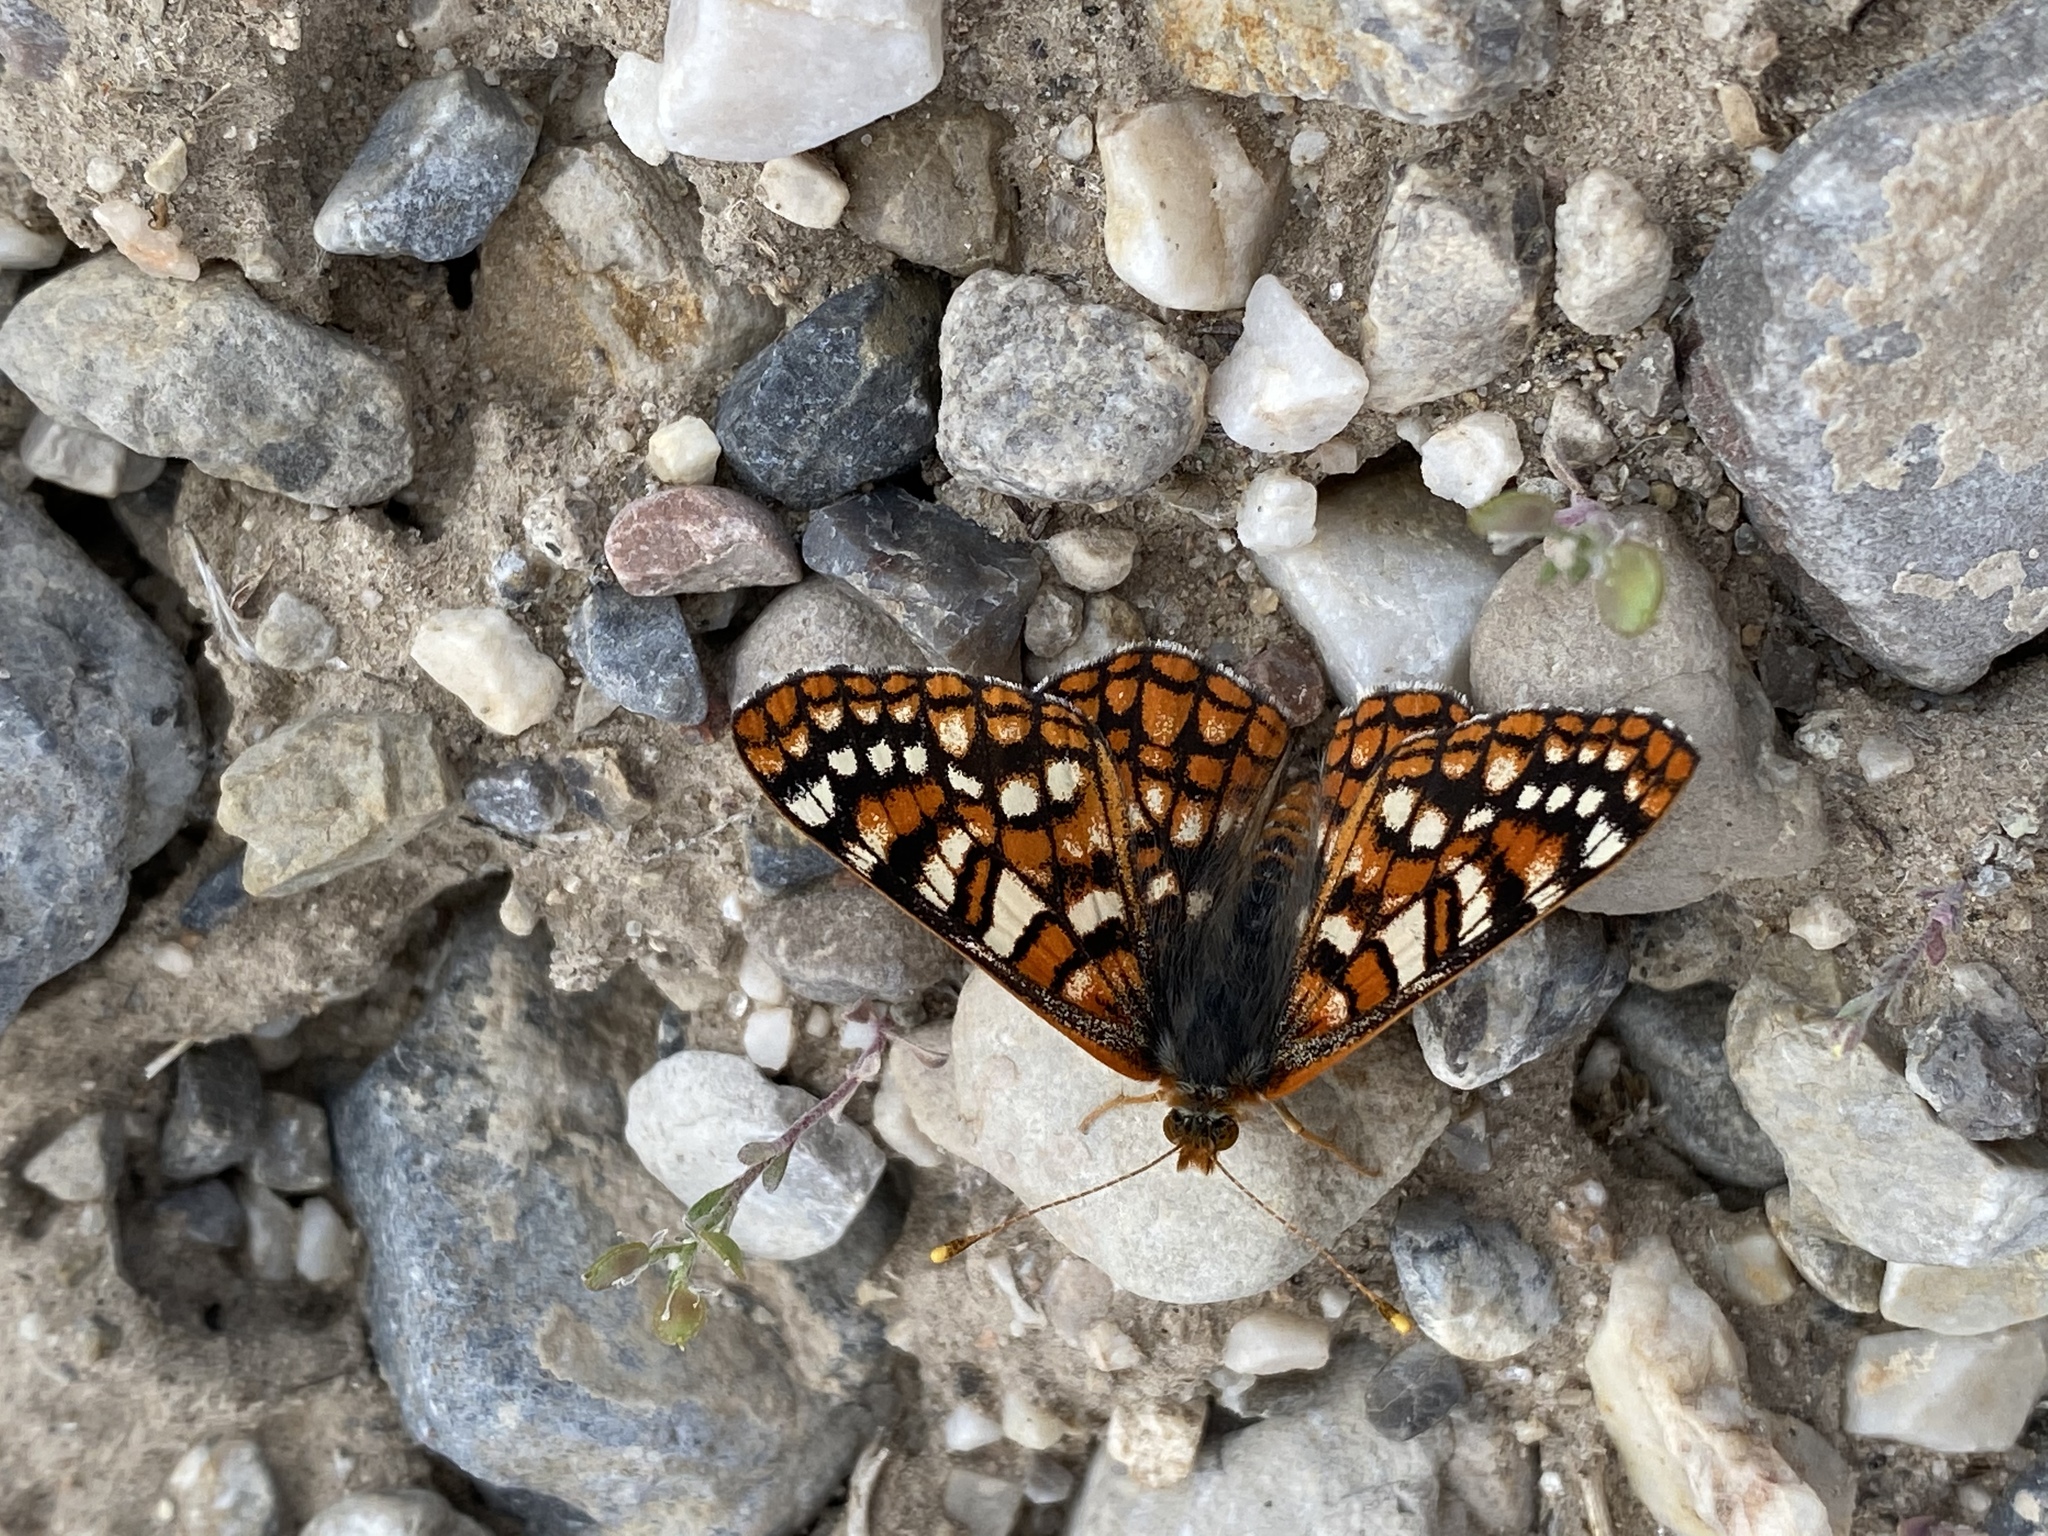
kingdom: Animalia
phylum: Arthropoda
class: Insecta
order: Lepidoptera
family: Nymphalidae
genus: Occidryas
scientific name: Occidryas anicia
